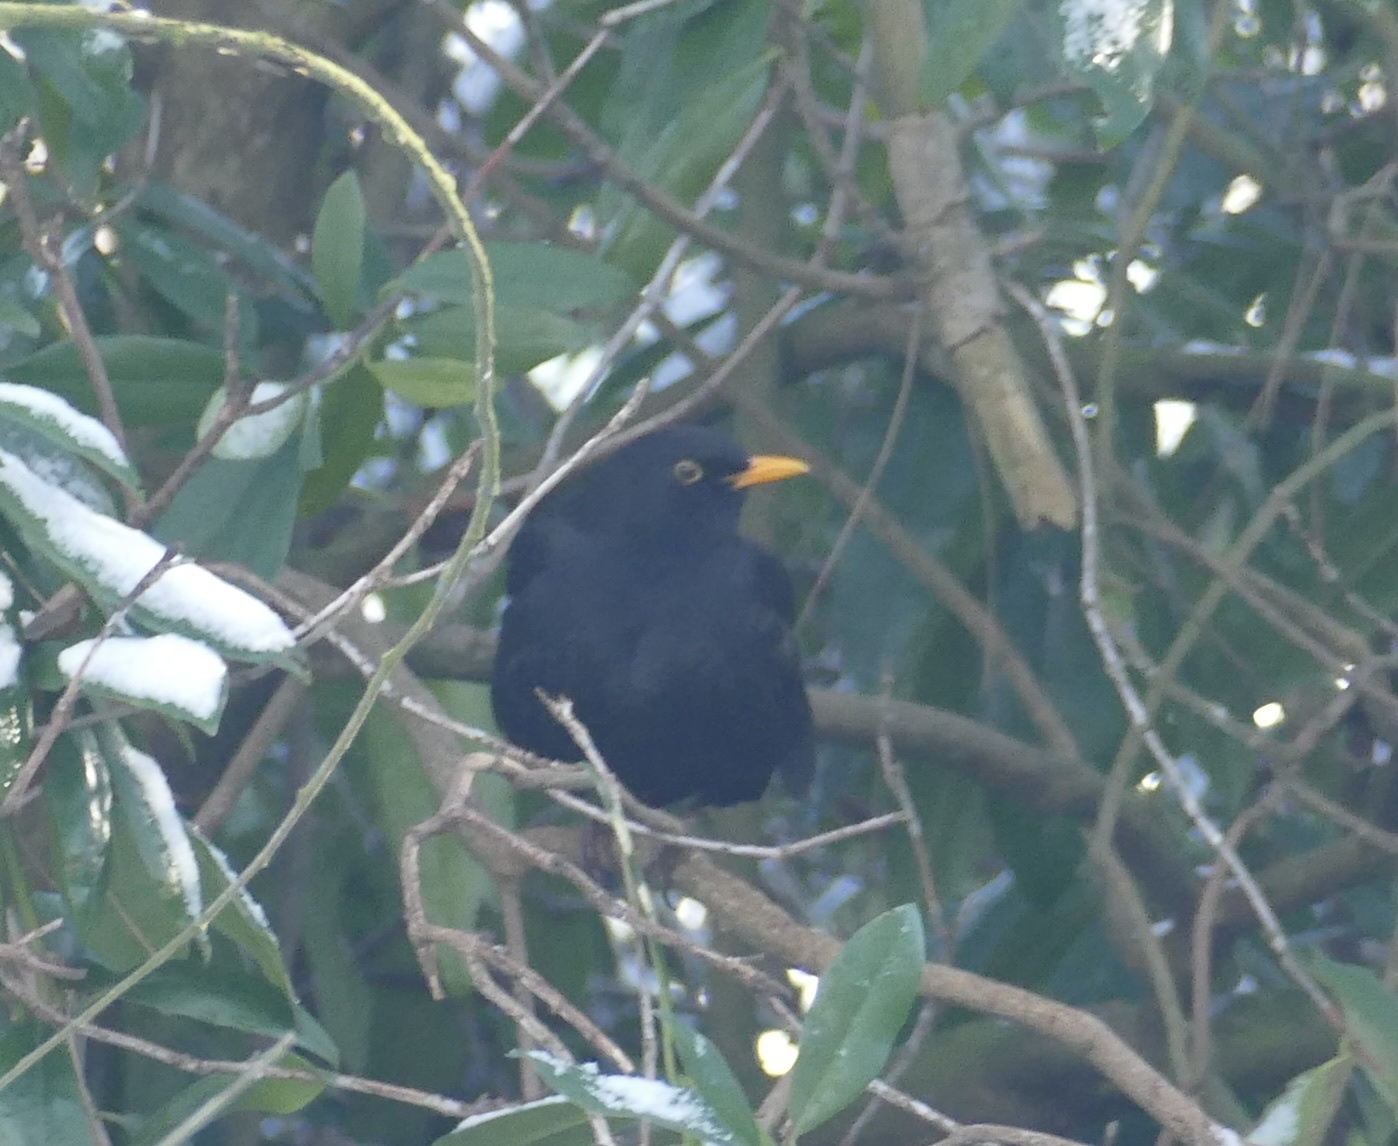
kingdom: Animalia
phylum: Chordata
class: Aves
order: Passeriformes
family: Turdidae
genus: Turdus
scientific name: Turdus merula
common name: Common blackbird
